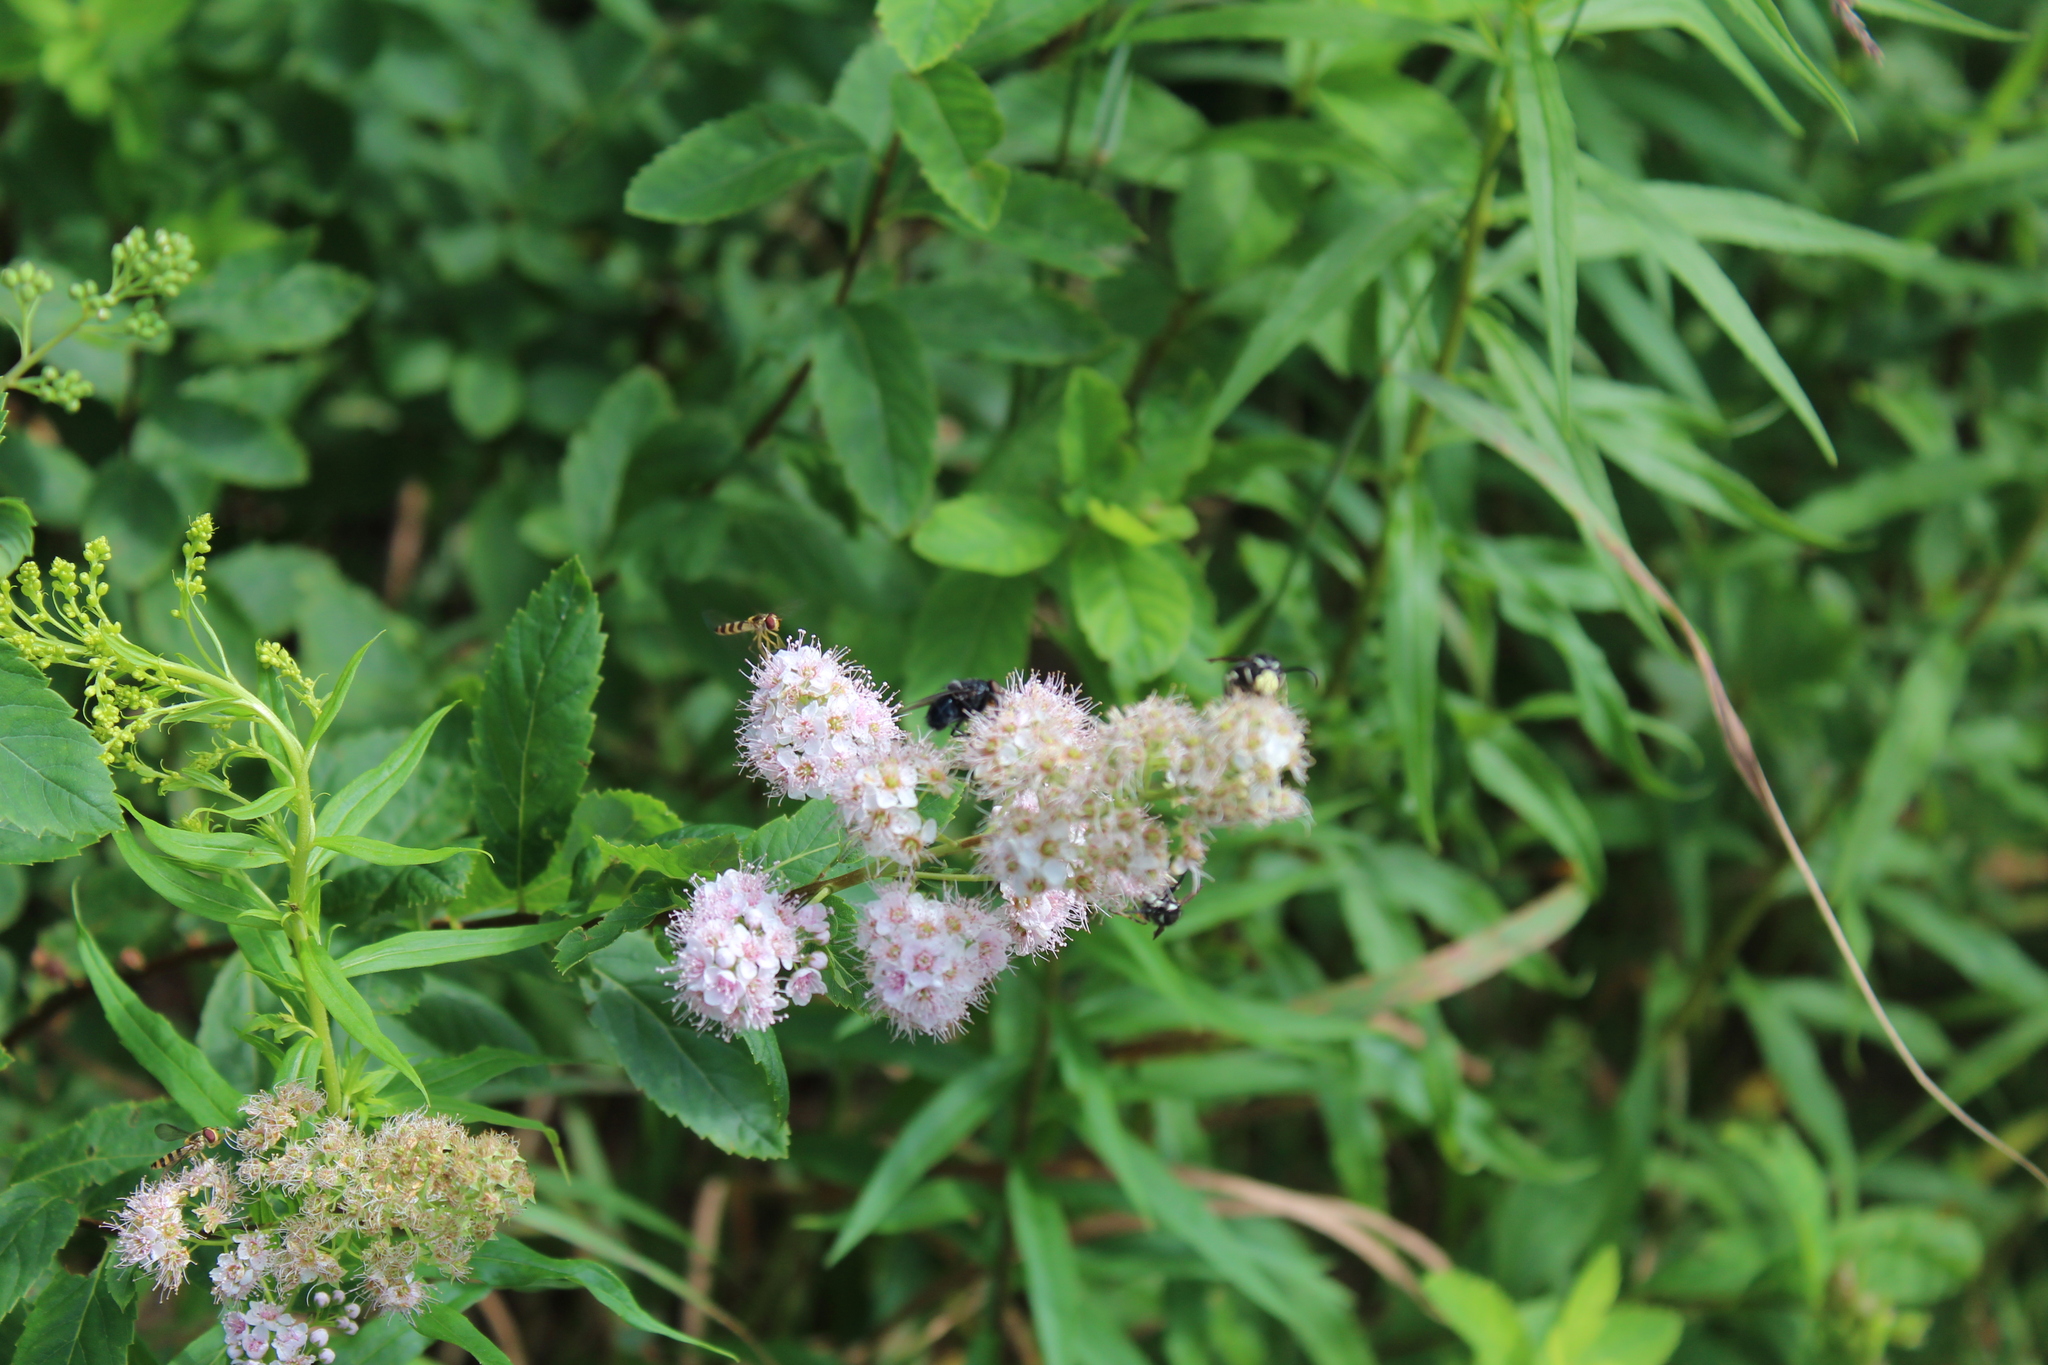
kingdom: Animalia
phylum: Arthropoda
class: Insecta
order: Diptera
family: Syrphidae
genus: Meliscaeva
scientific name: Meliscaeva cinctella
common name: American thintail fly
